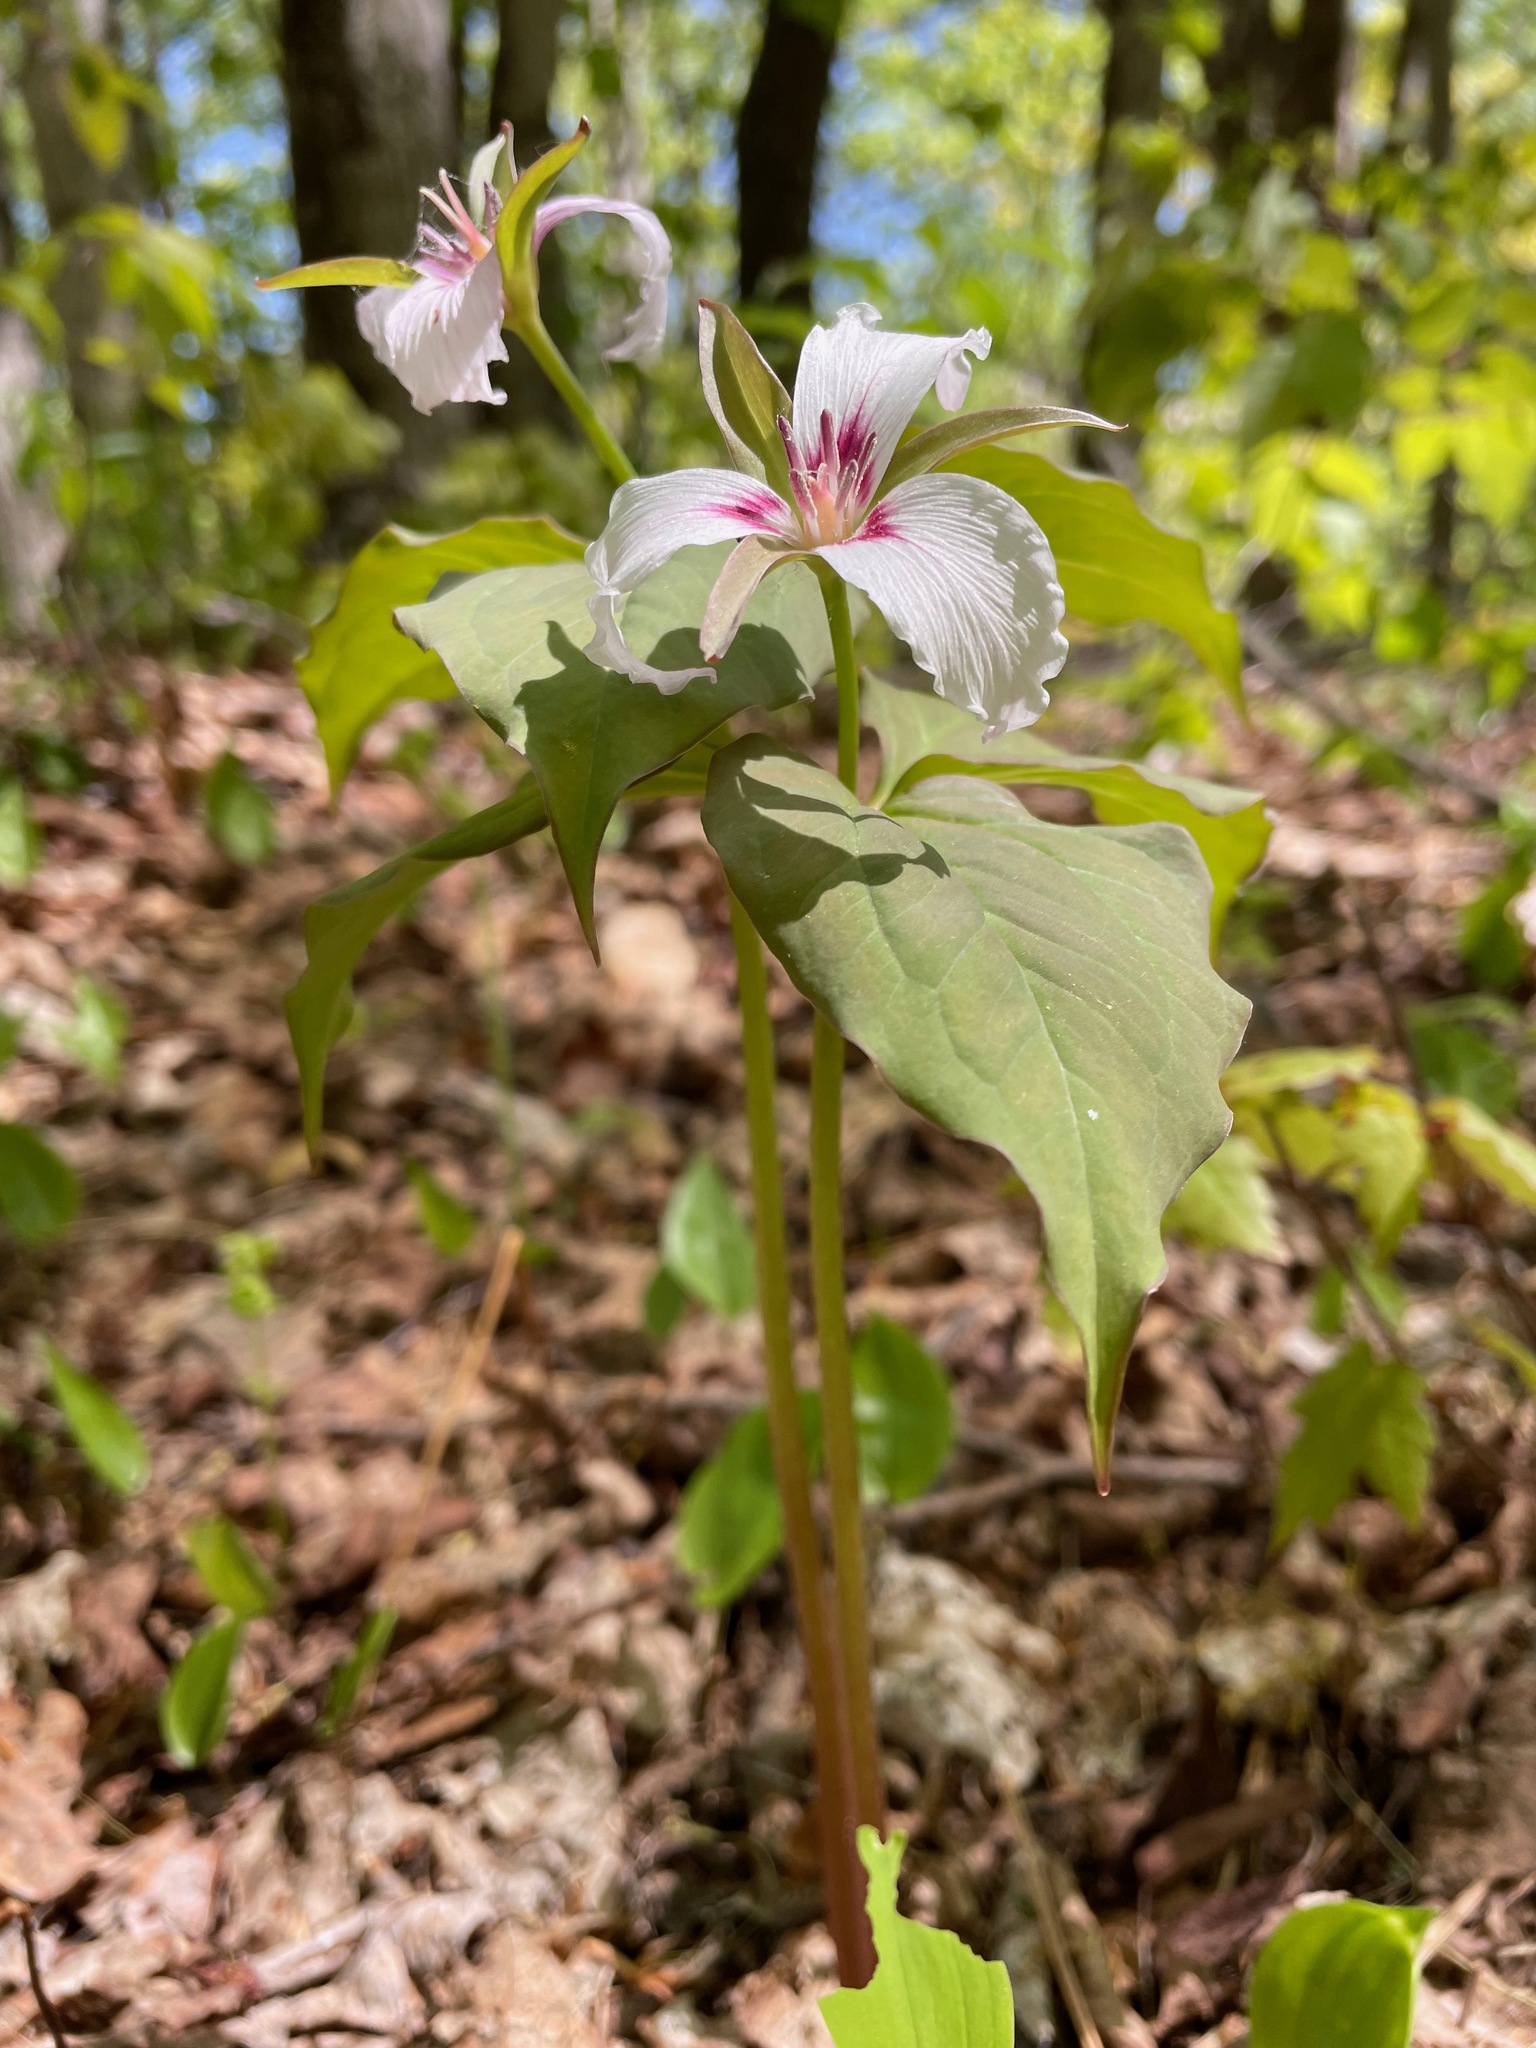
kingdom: Plantae
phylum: Tracheophyta
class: Liliopsida
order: Liliales
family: Melanthiaceae
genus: Trillium
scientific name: Trillium undulatum
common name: Paint trillium
